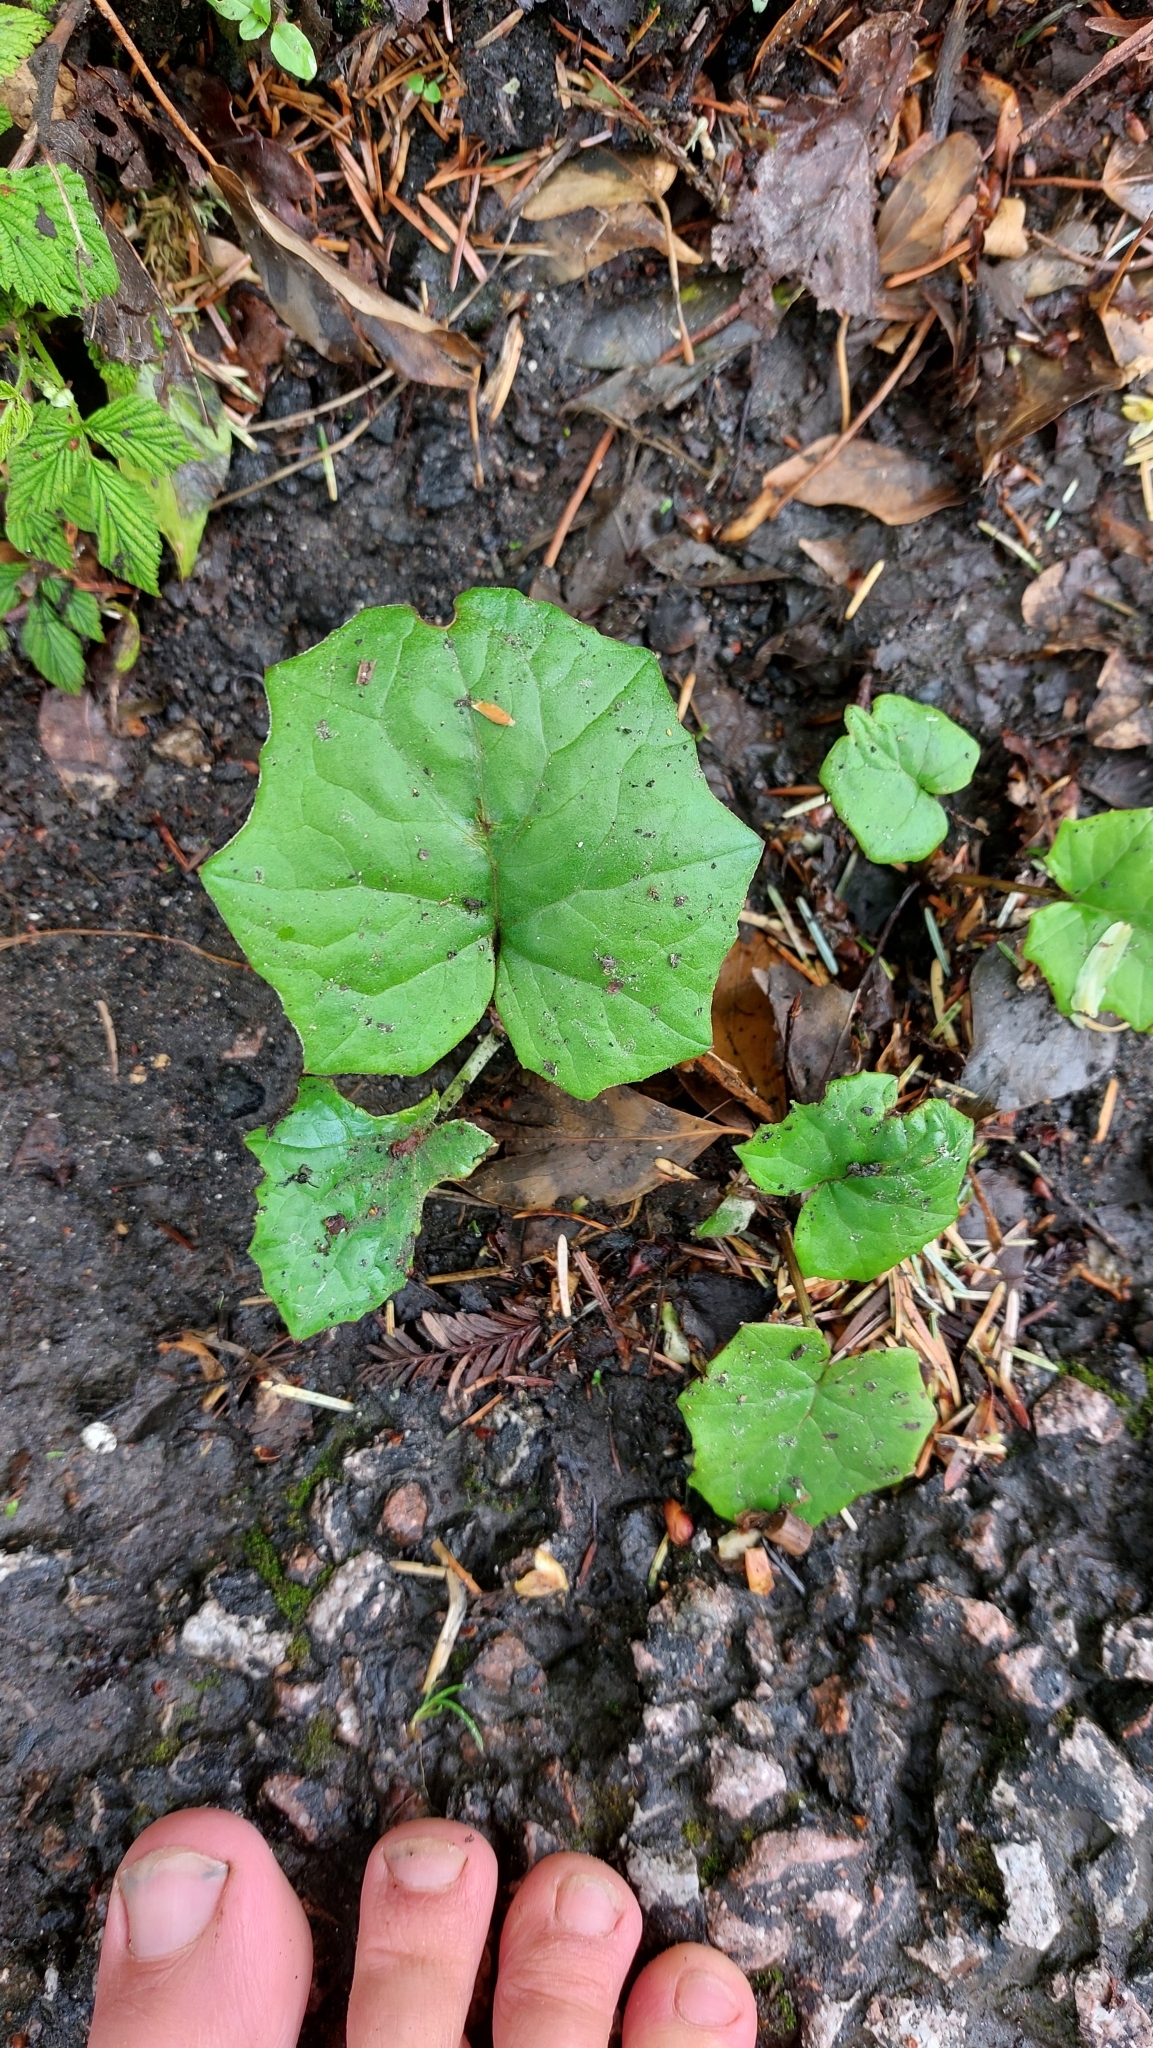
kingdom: Plantae
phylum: Tracheophyta
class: Magnoliopsida
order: Asterales
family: Asteraceae
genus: Tussilago
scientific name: Tussilago farfara
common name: Coltsfoot
